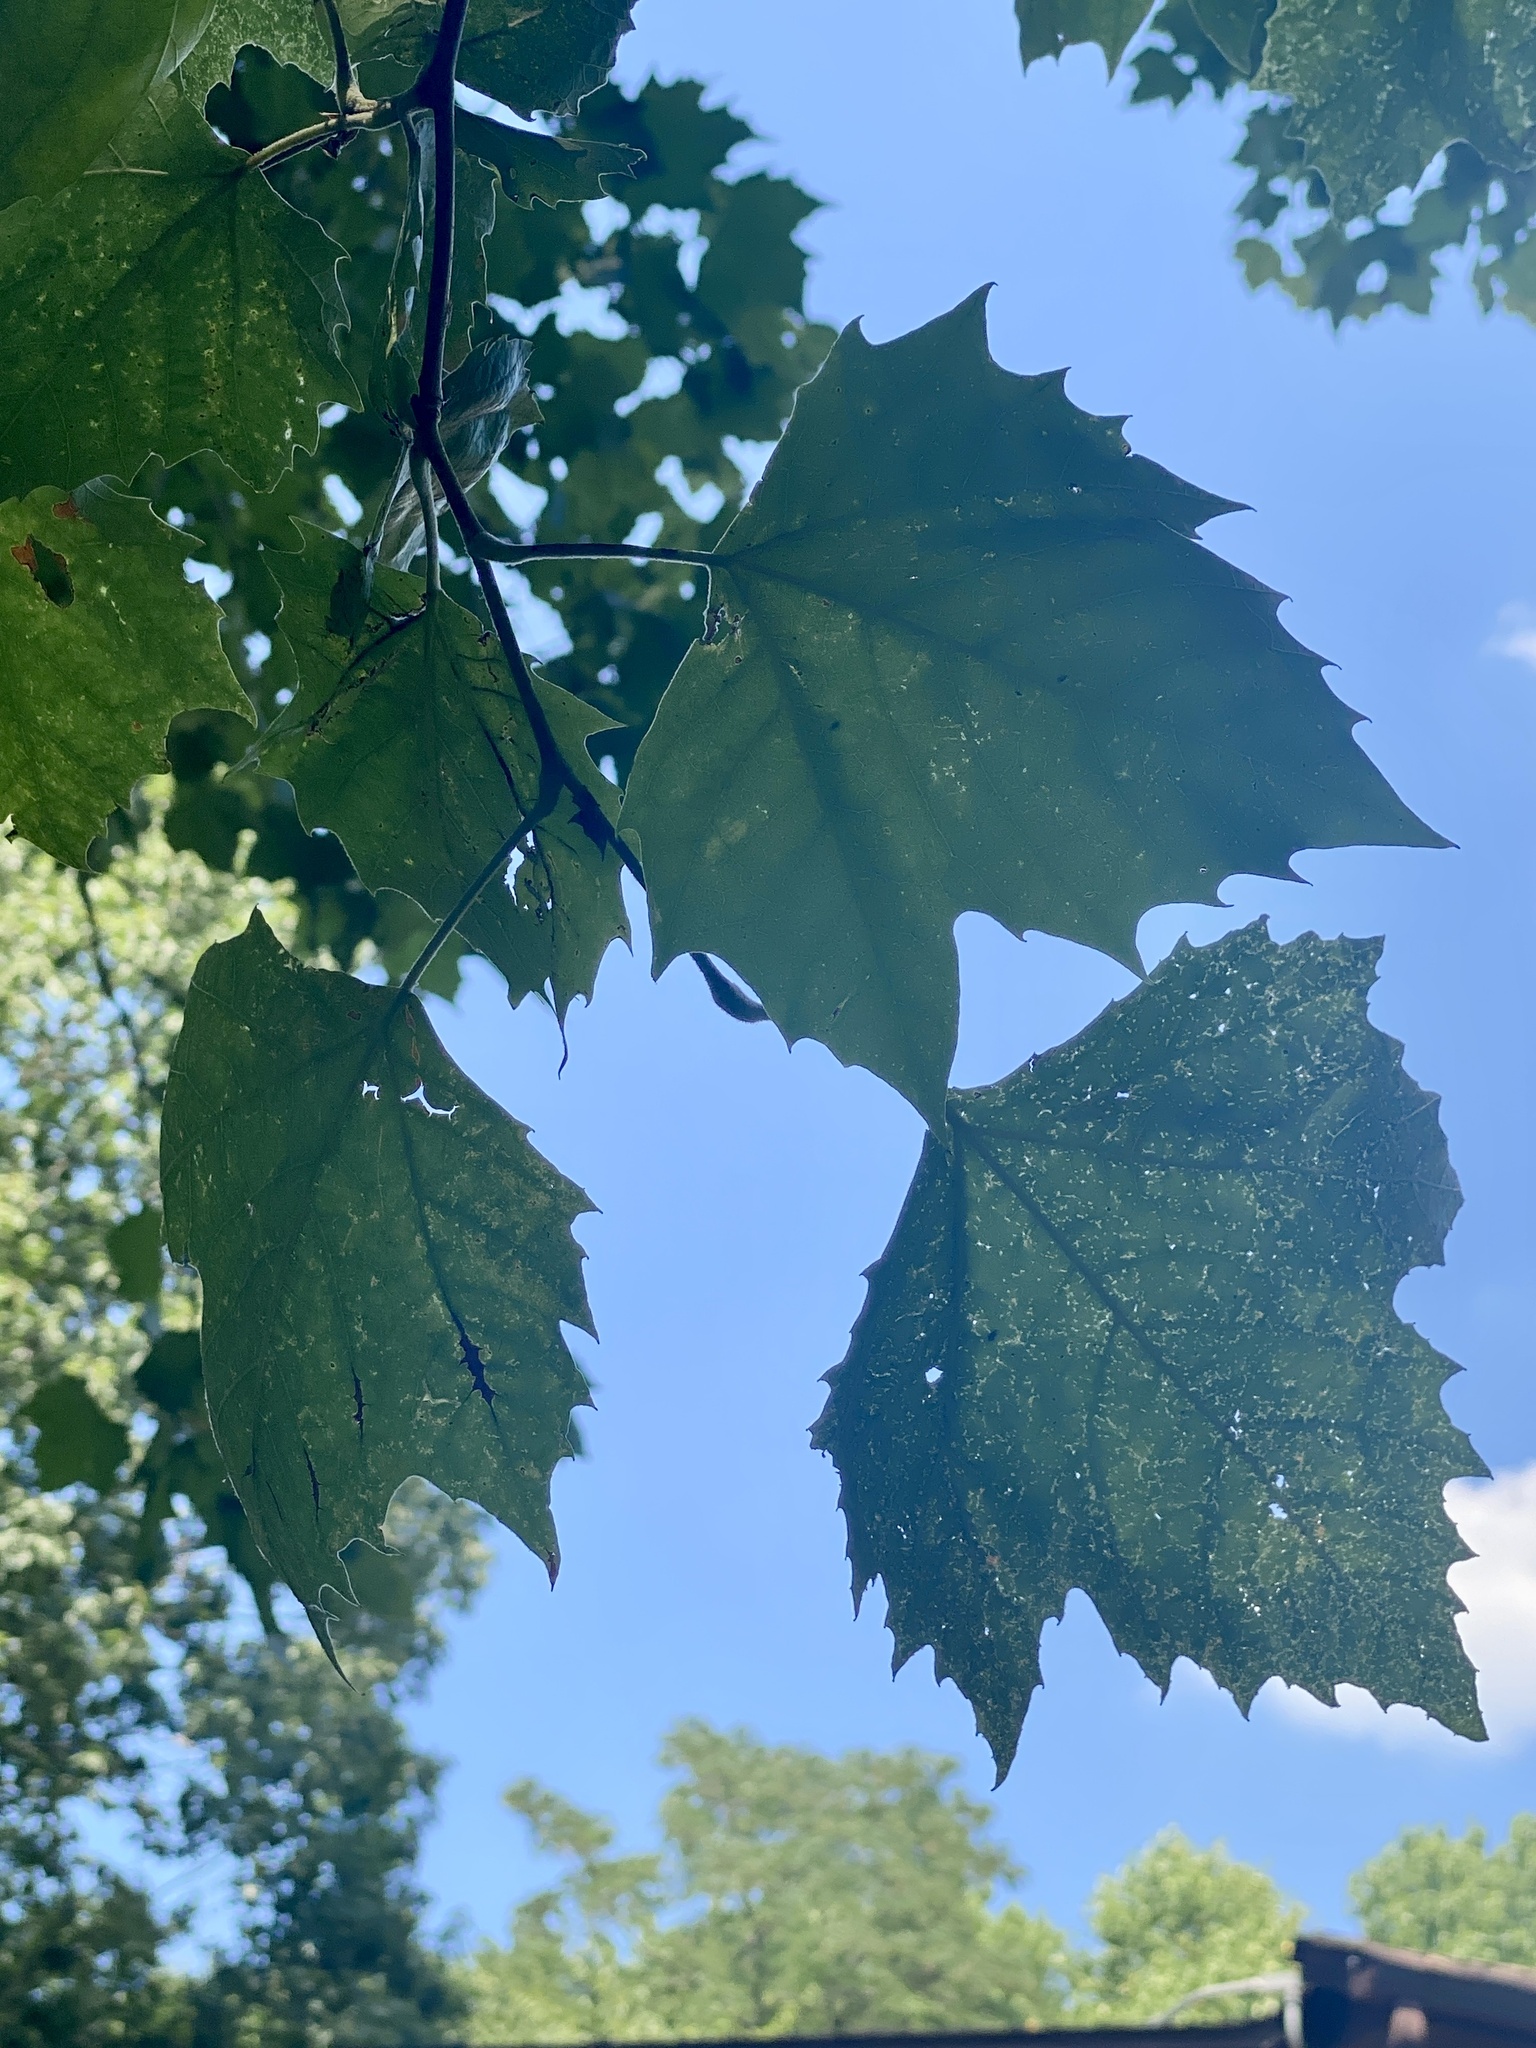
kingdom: Plantae
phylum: Tracheophyta
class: Magnoliopsida
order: Proteales
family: Platanaceae
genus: Platanus
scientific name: Platanus occidentalis
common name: American sycamore
